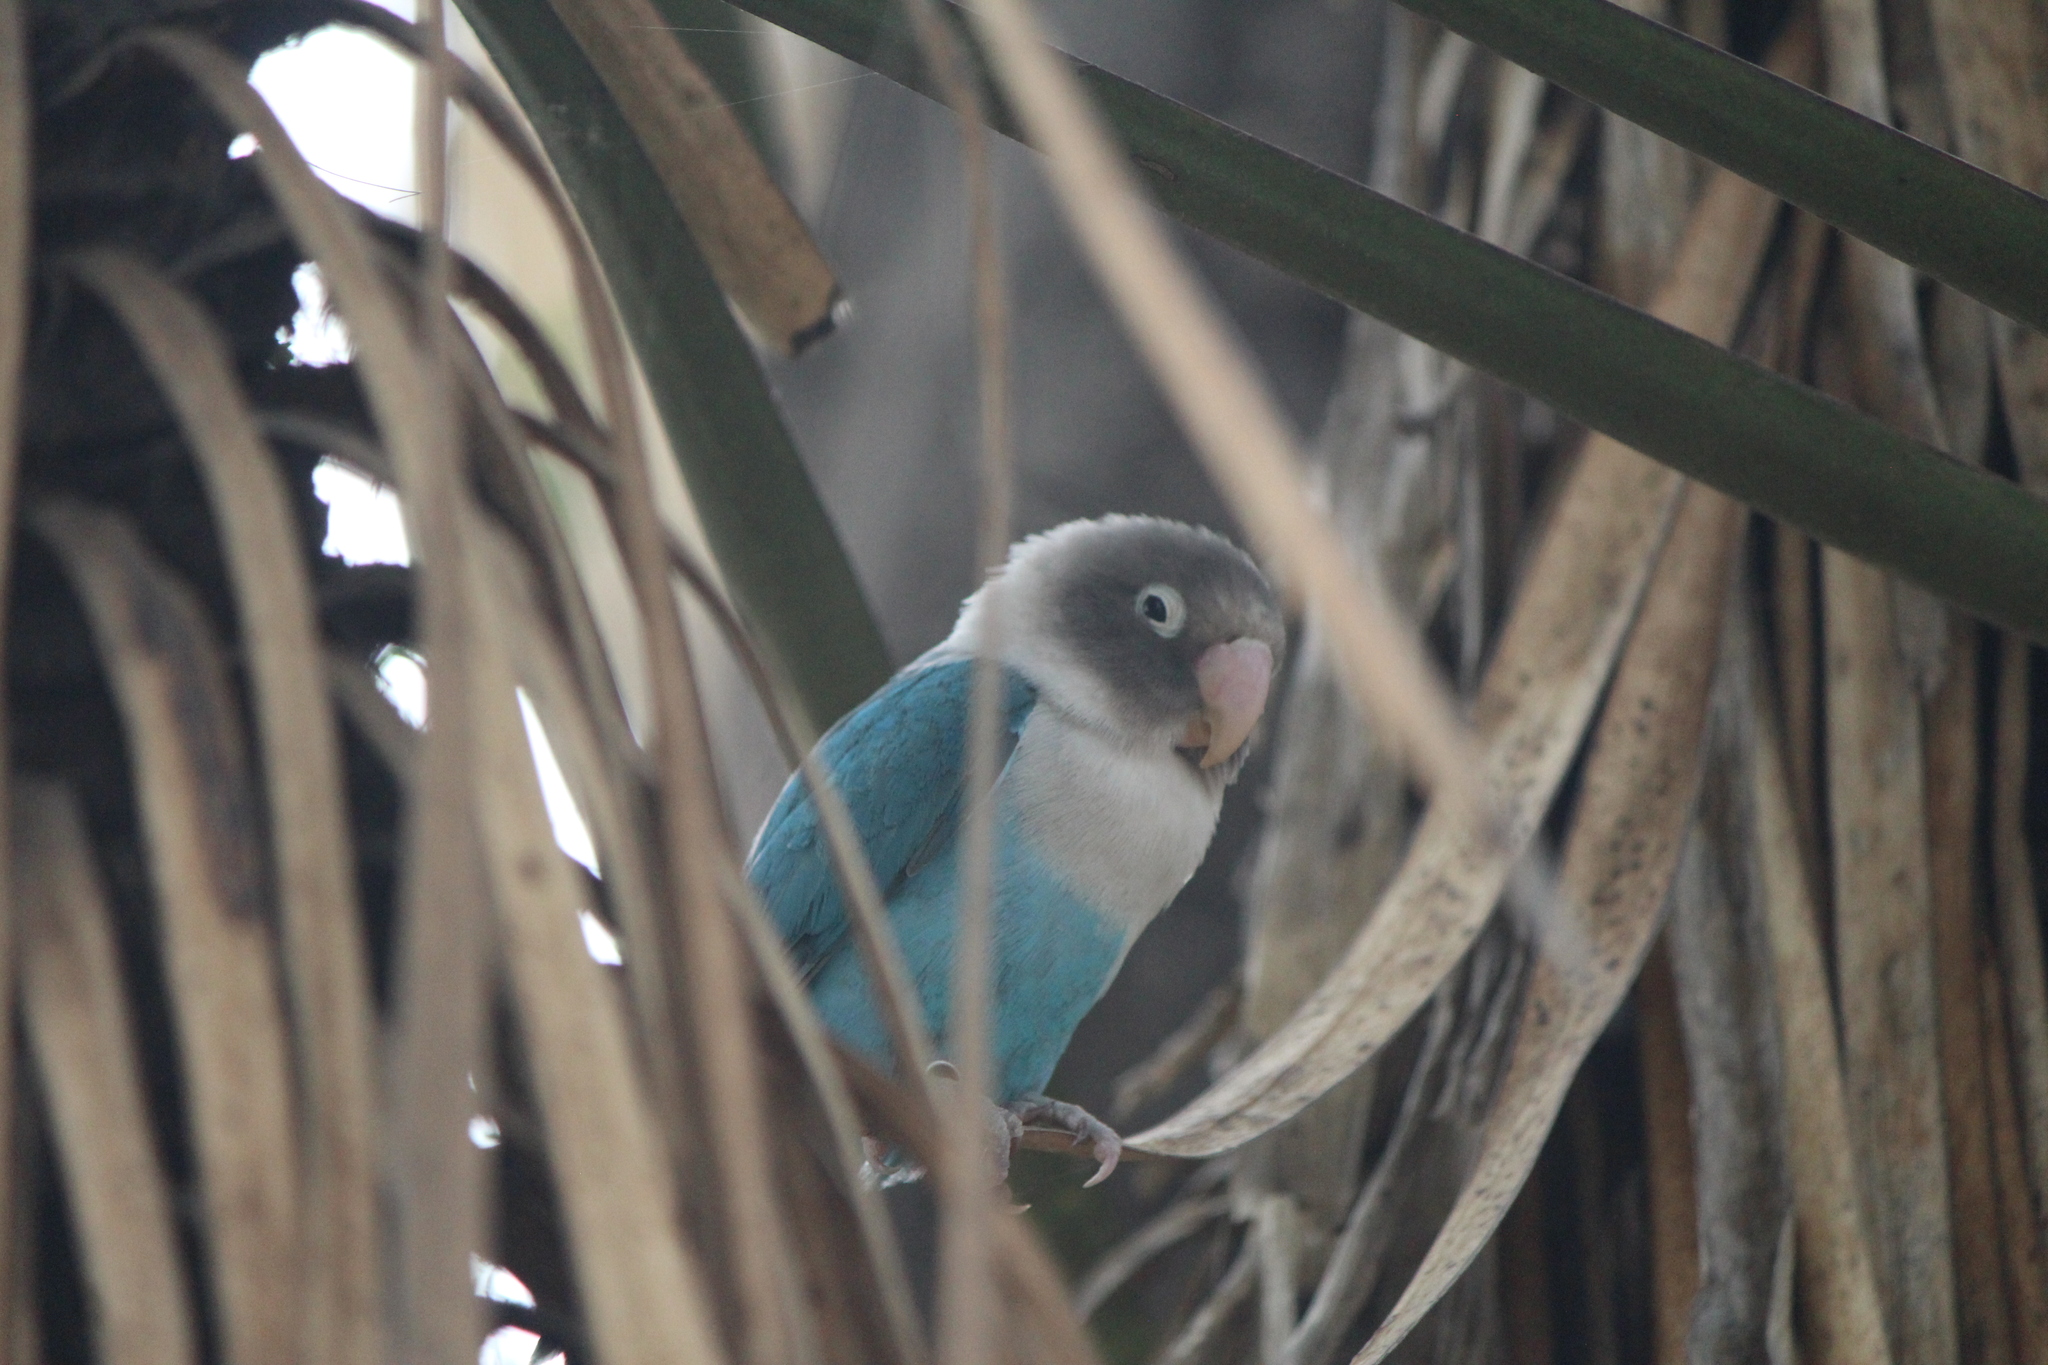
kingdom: Animalia
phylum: Chordata
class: Aves
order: Psittaciformes
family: Psittacidae
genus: Agapornis
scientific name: Agapornis personatus
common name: Yellow-collared lovebird
